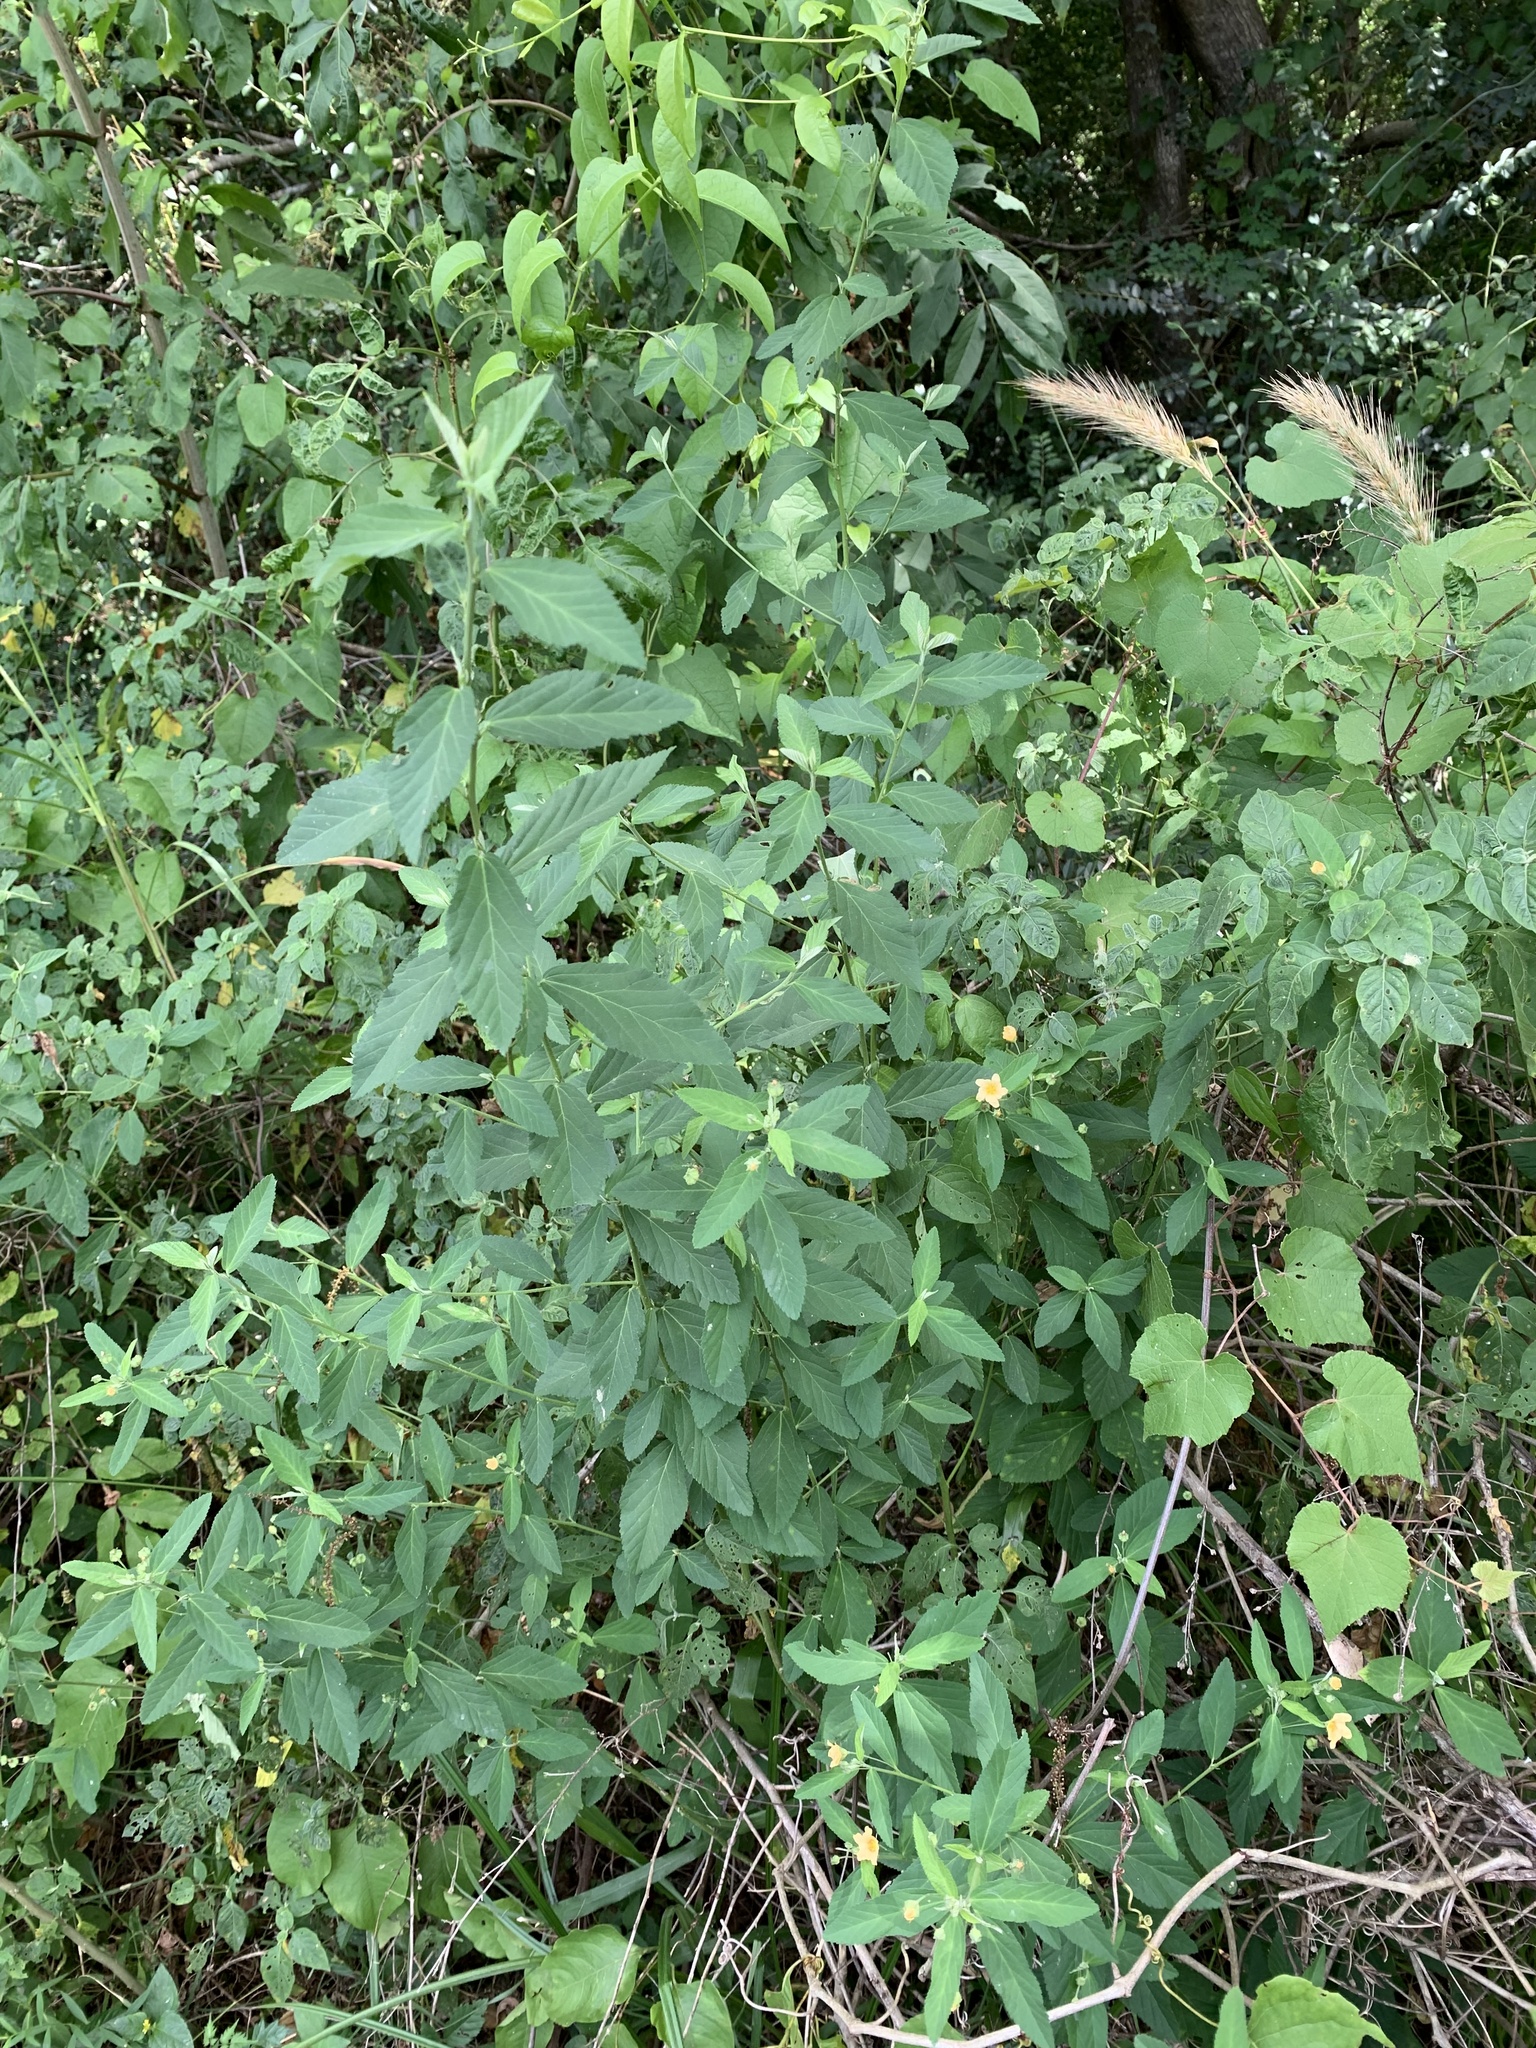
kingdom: Plantae
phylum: Tracheophyta
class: Magnoliopsida
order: Malvales
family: Malvaceae
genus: Sida
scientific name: Sida rhombifolia
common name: Queensland-hemp
